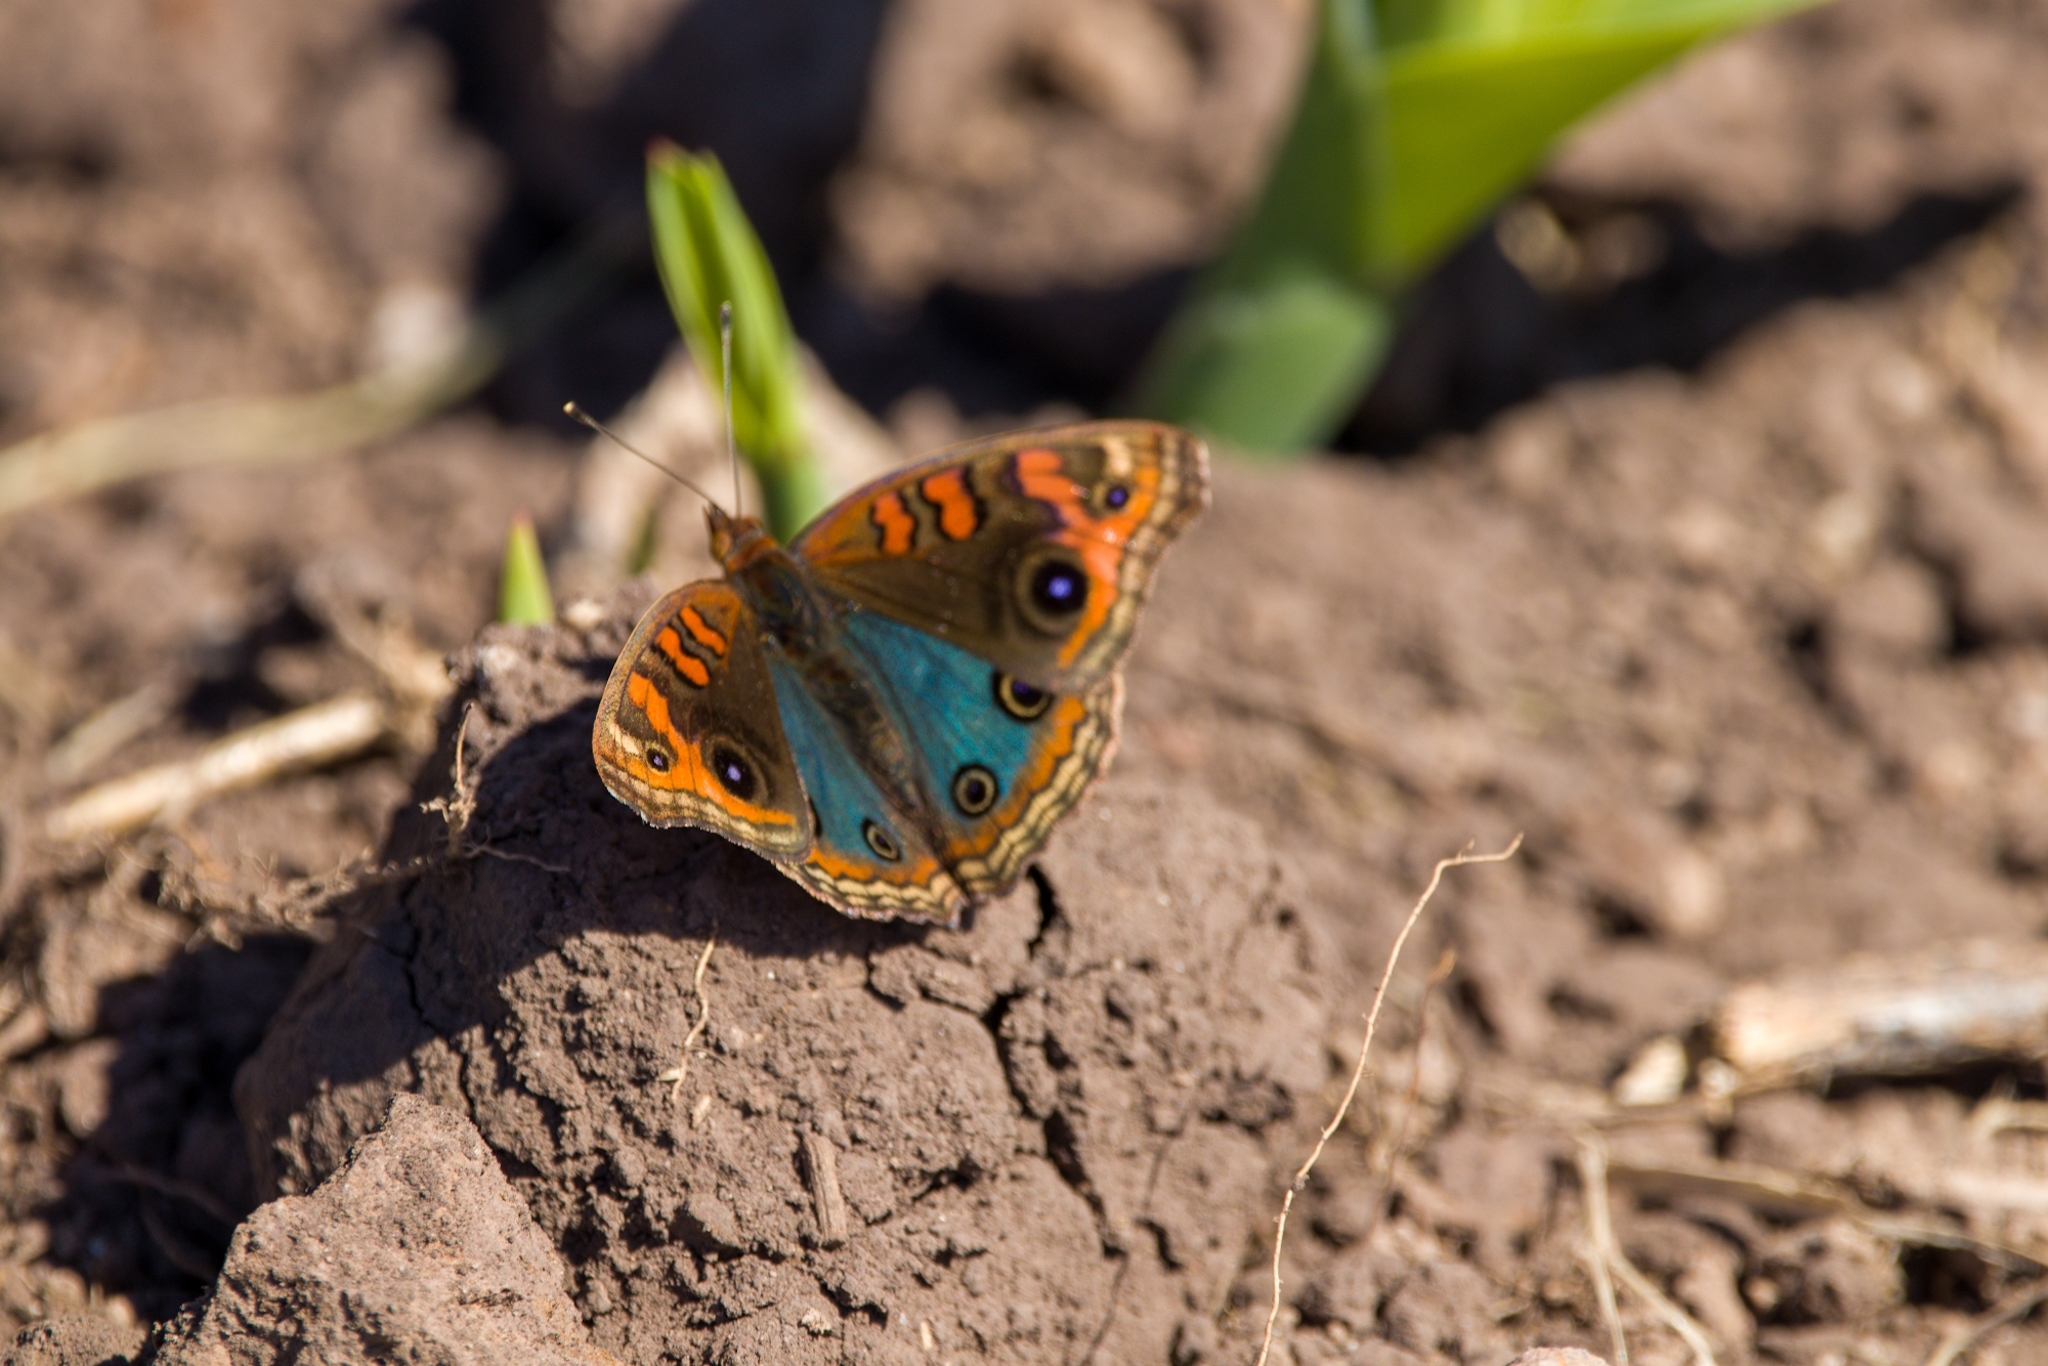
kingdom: Animalia
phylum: Arthropoda
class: Insecta
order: Lepidoptera
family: Nymphalidae
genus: Junonia
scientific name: Junonia lavinia
